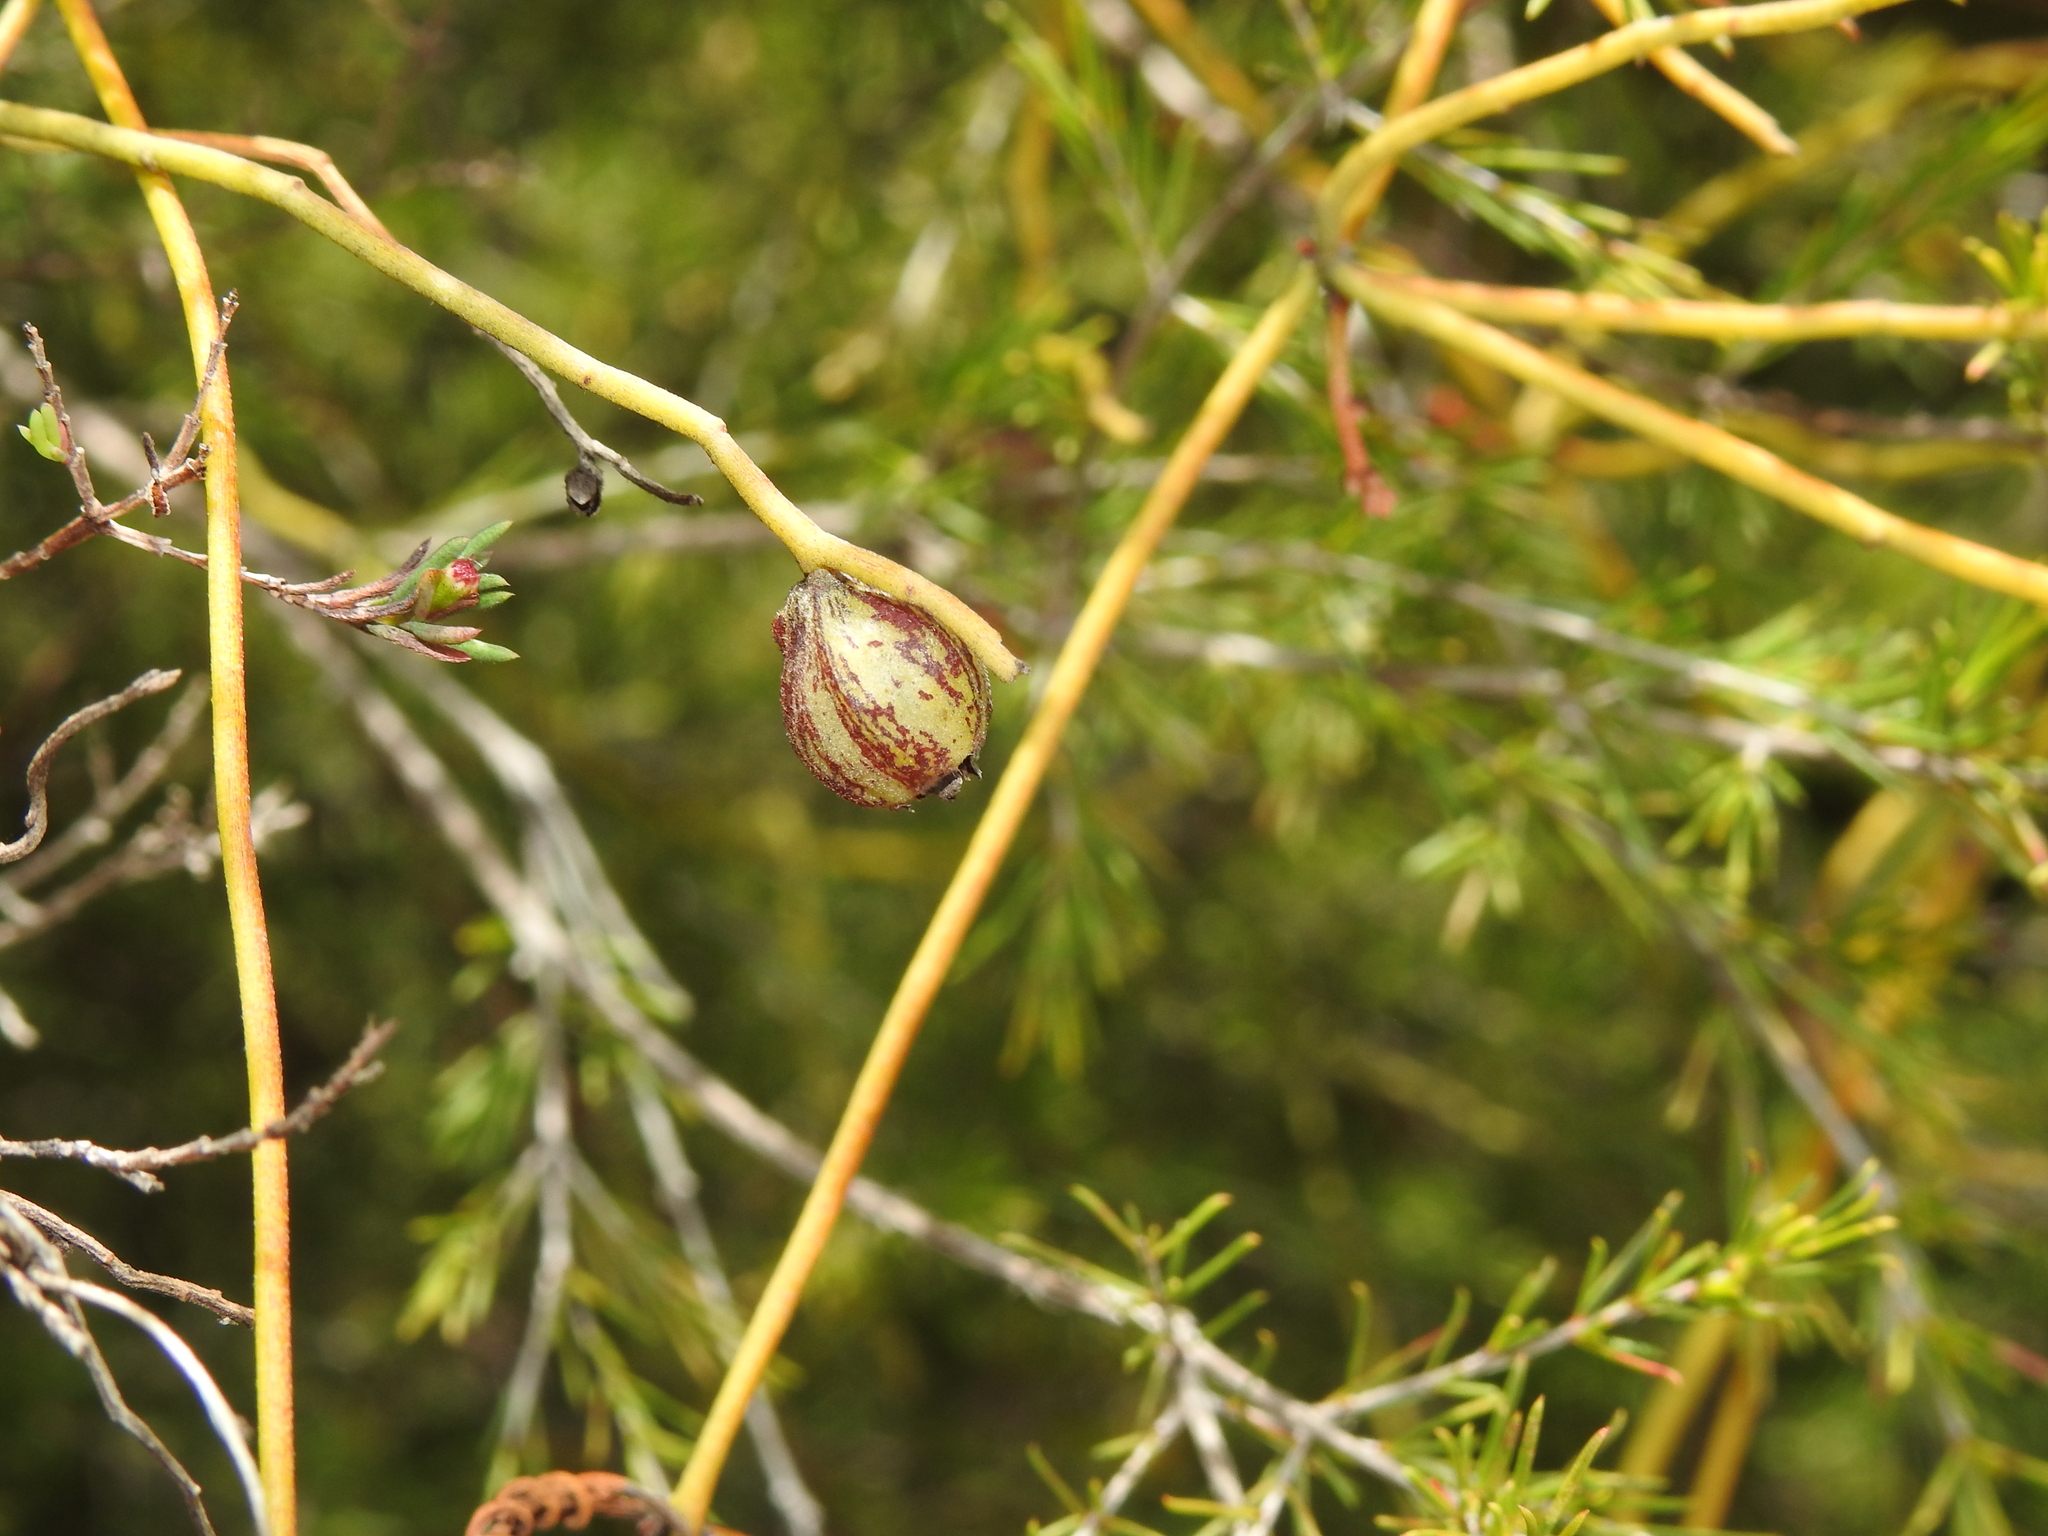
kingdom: Plantae
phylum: Tracheophyta
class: Magnoliopsida
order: Laurales
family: Lauraceae
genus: Cassytha
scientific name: Cassytha pubescens
